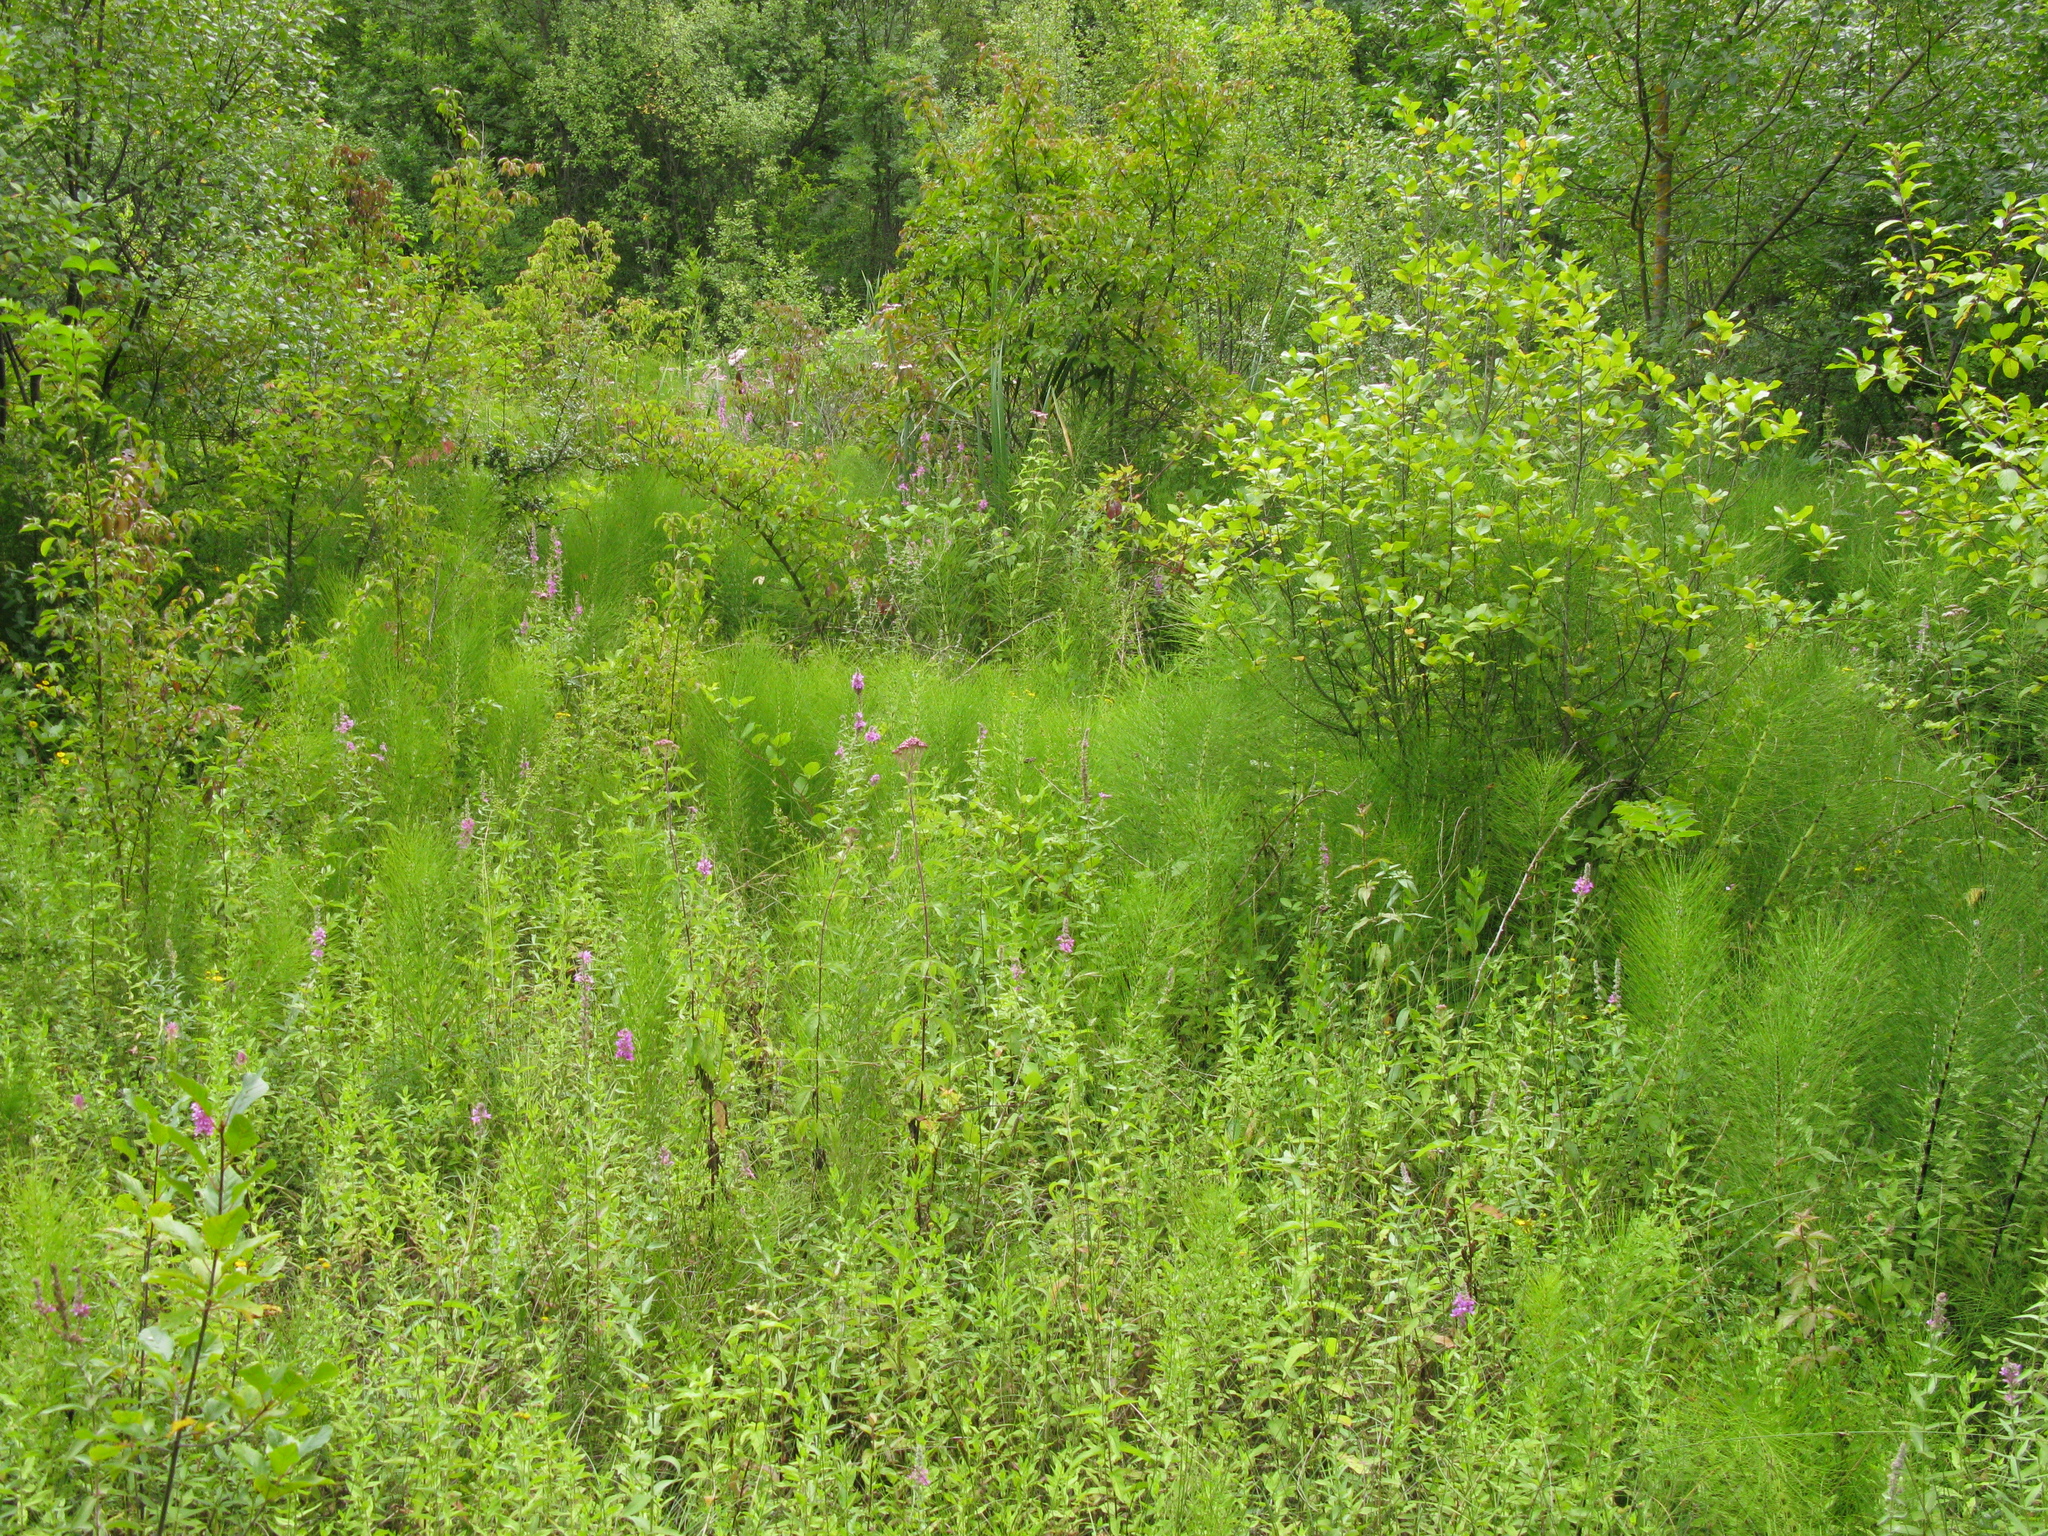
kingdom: Plantae
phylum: Tracheophyta
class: Magnoliopsida
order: Myrtales
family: Lythraceae
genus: Lythrum
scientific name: Lythrum salicaria
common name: Purple loosestrife
